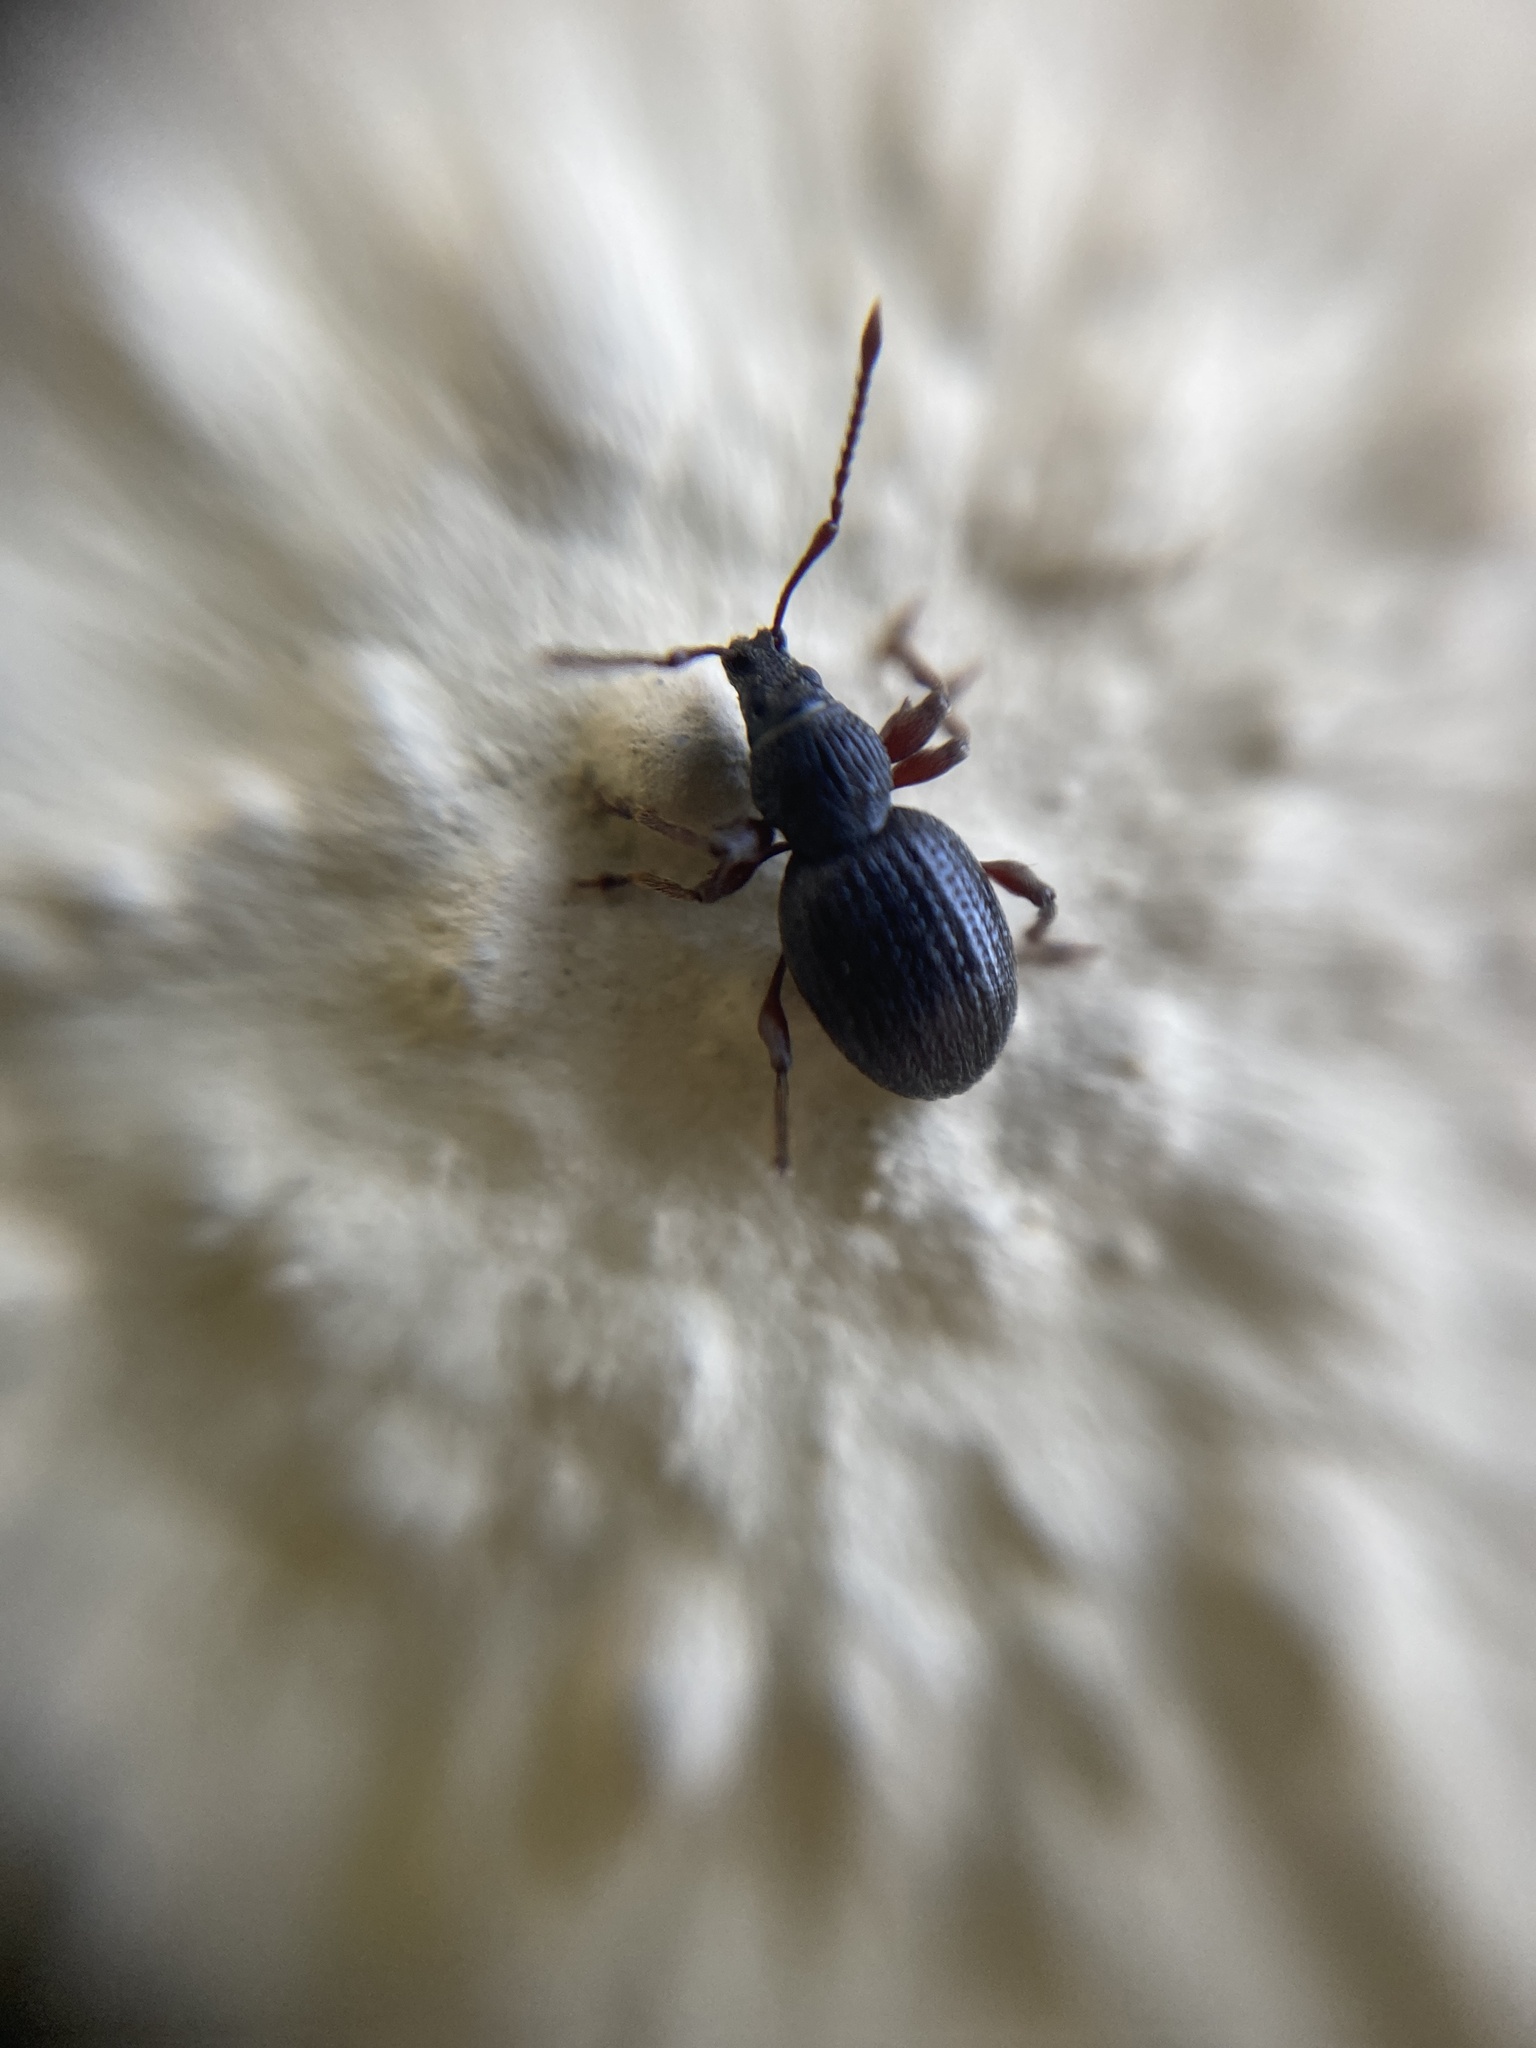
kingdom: Animalia
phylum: Arthropoda
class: Insecta
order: Coleoptera
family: Curculionidae
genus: Otiorhynchus
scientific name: Otiorhynchus ovatus
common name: Strawberry root weevil
